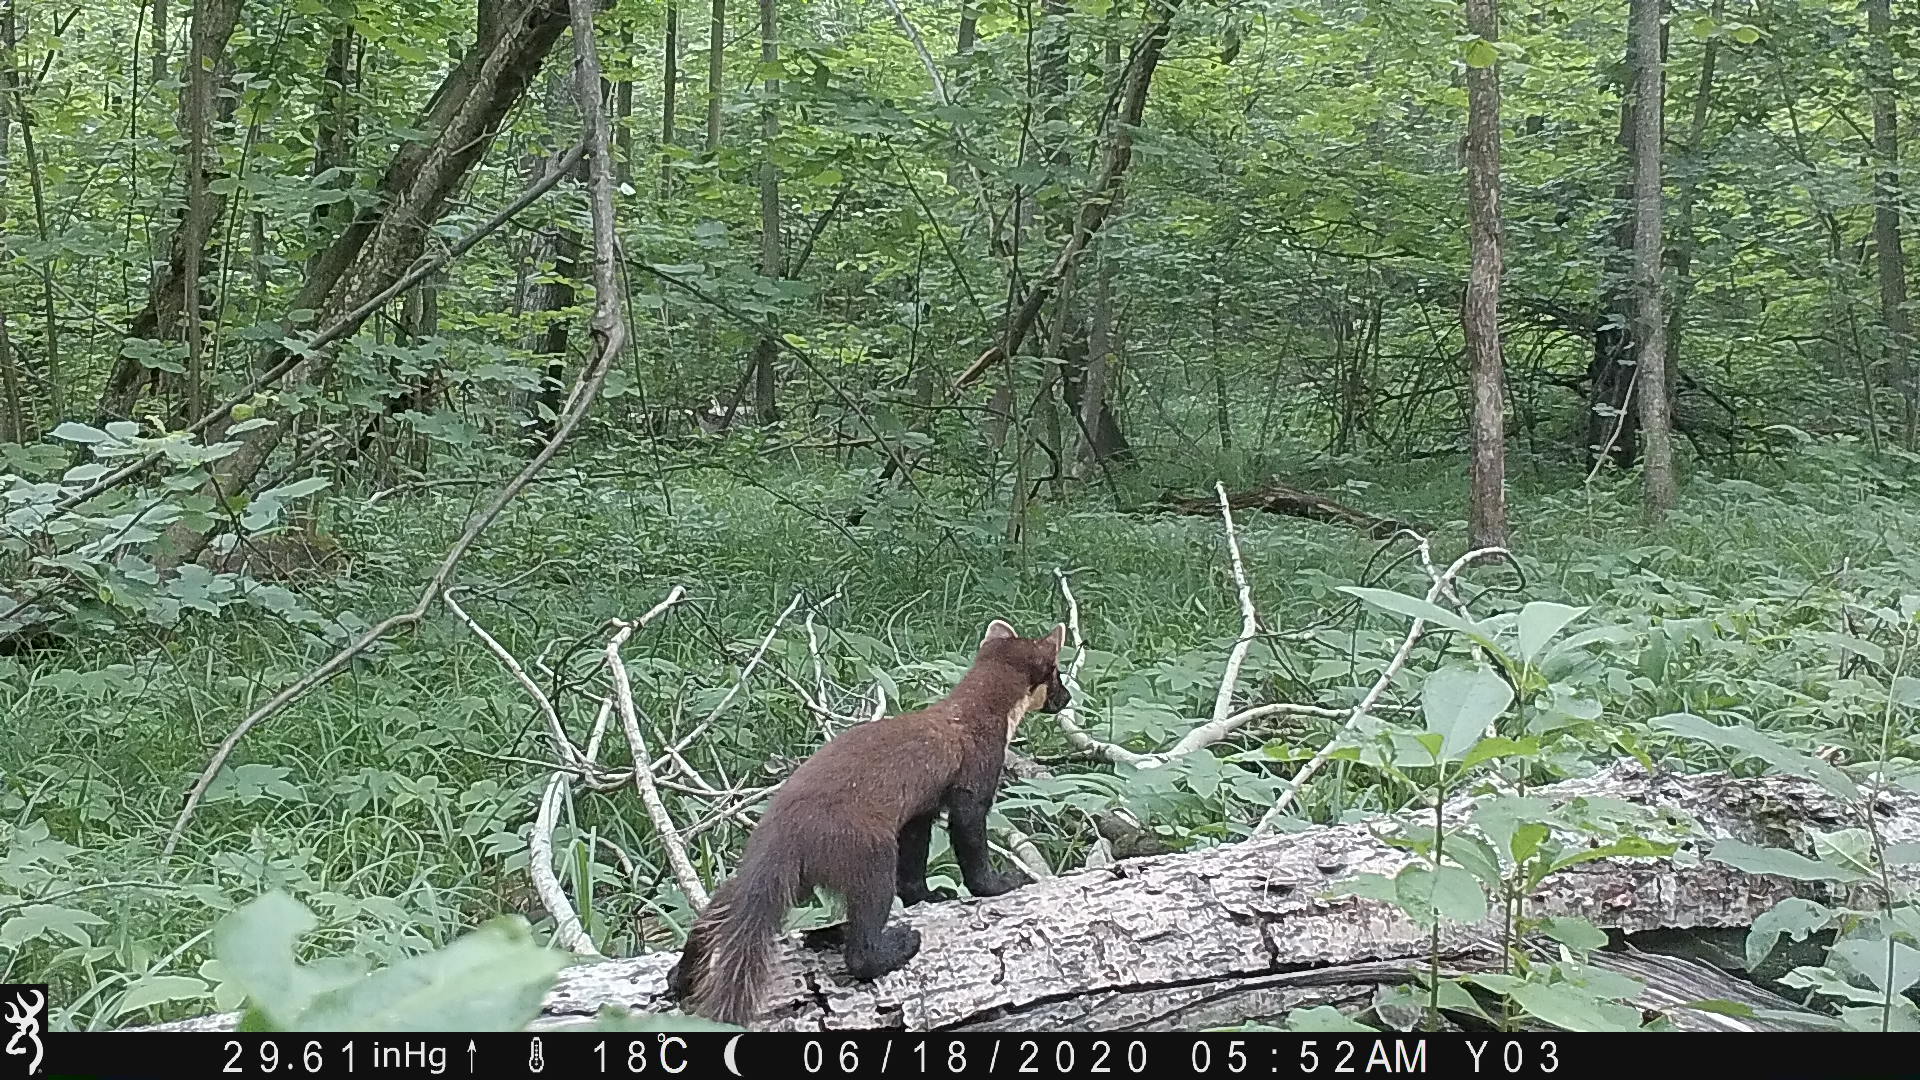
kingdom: Animalia
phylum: Chordata
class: Mammalia
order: Carnivora
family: Mustelidae
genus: Martes
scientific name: Martes martes
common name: European pine marten
